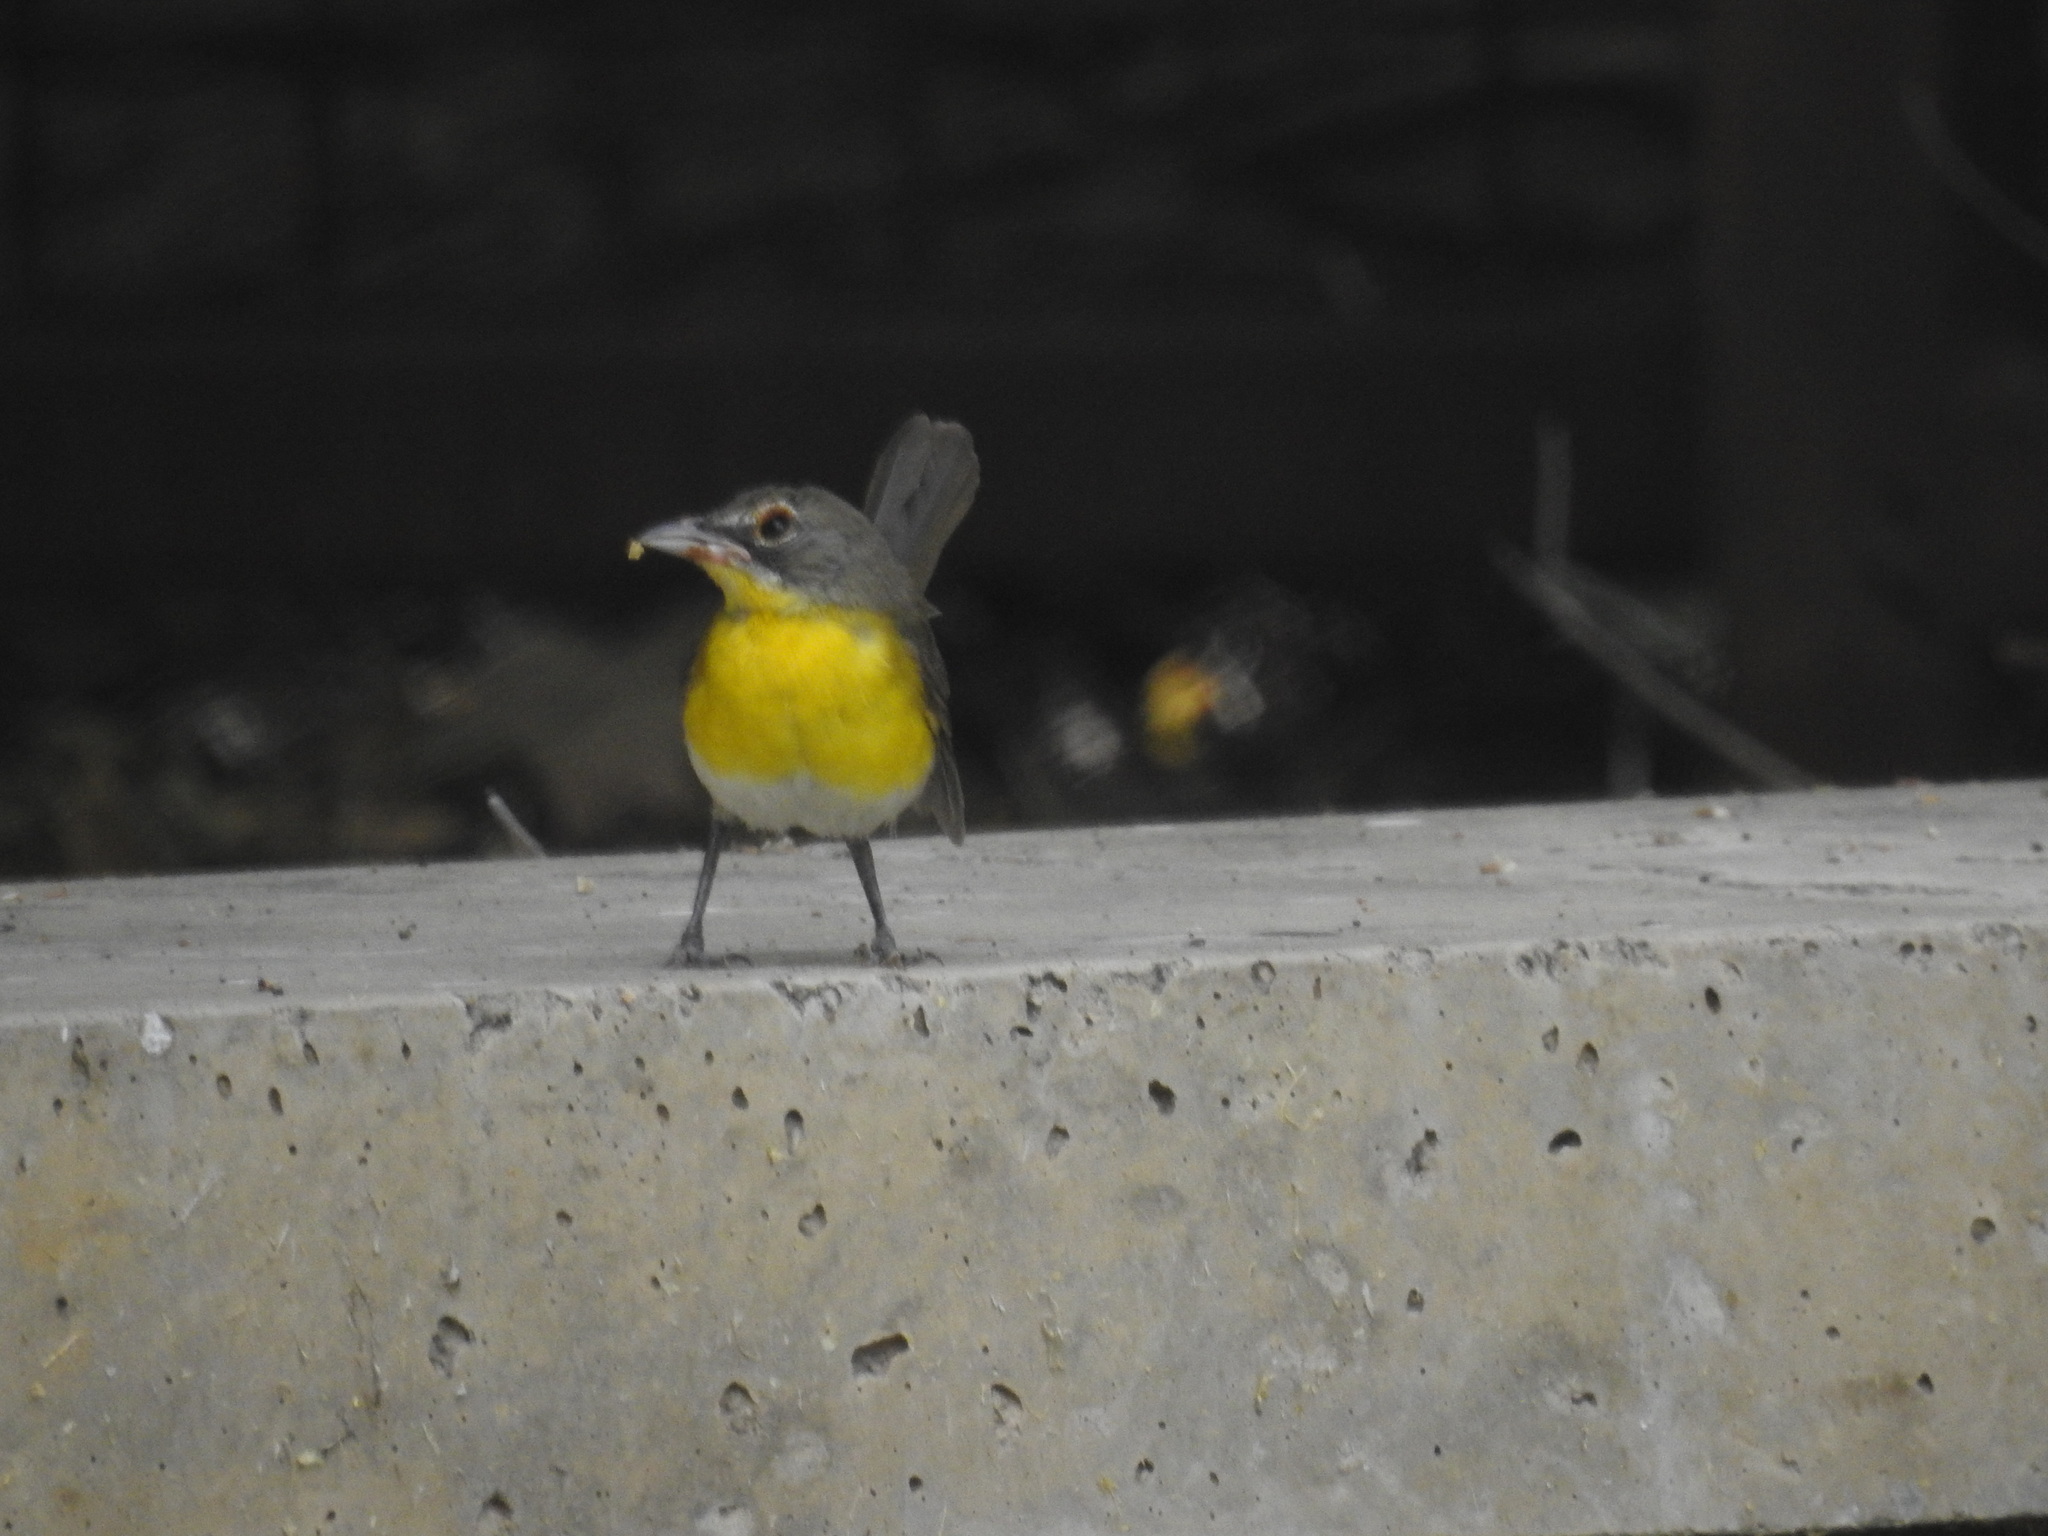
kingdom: Animalia
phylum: Chordata
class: Aves
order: Passeriformes
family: Parulidae
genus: Icteria
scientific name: Icteria virens
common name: Yellow-breasted chat
